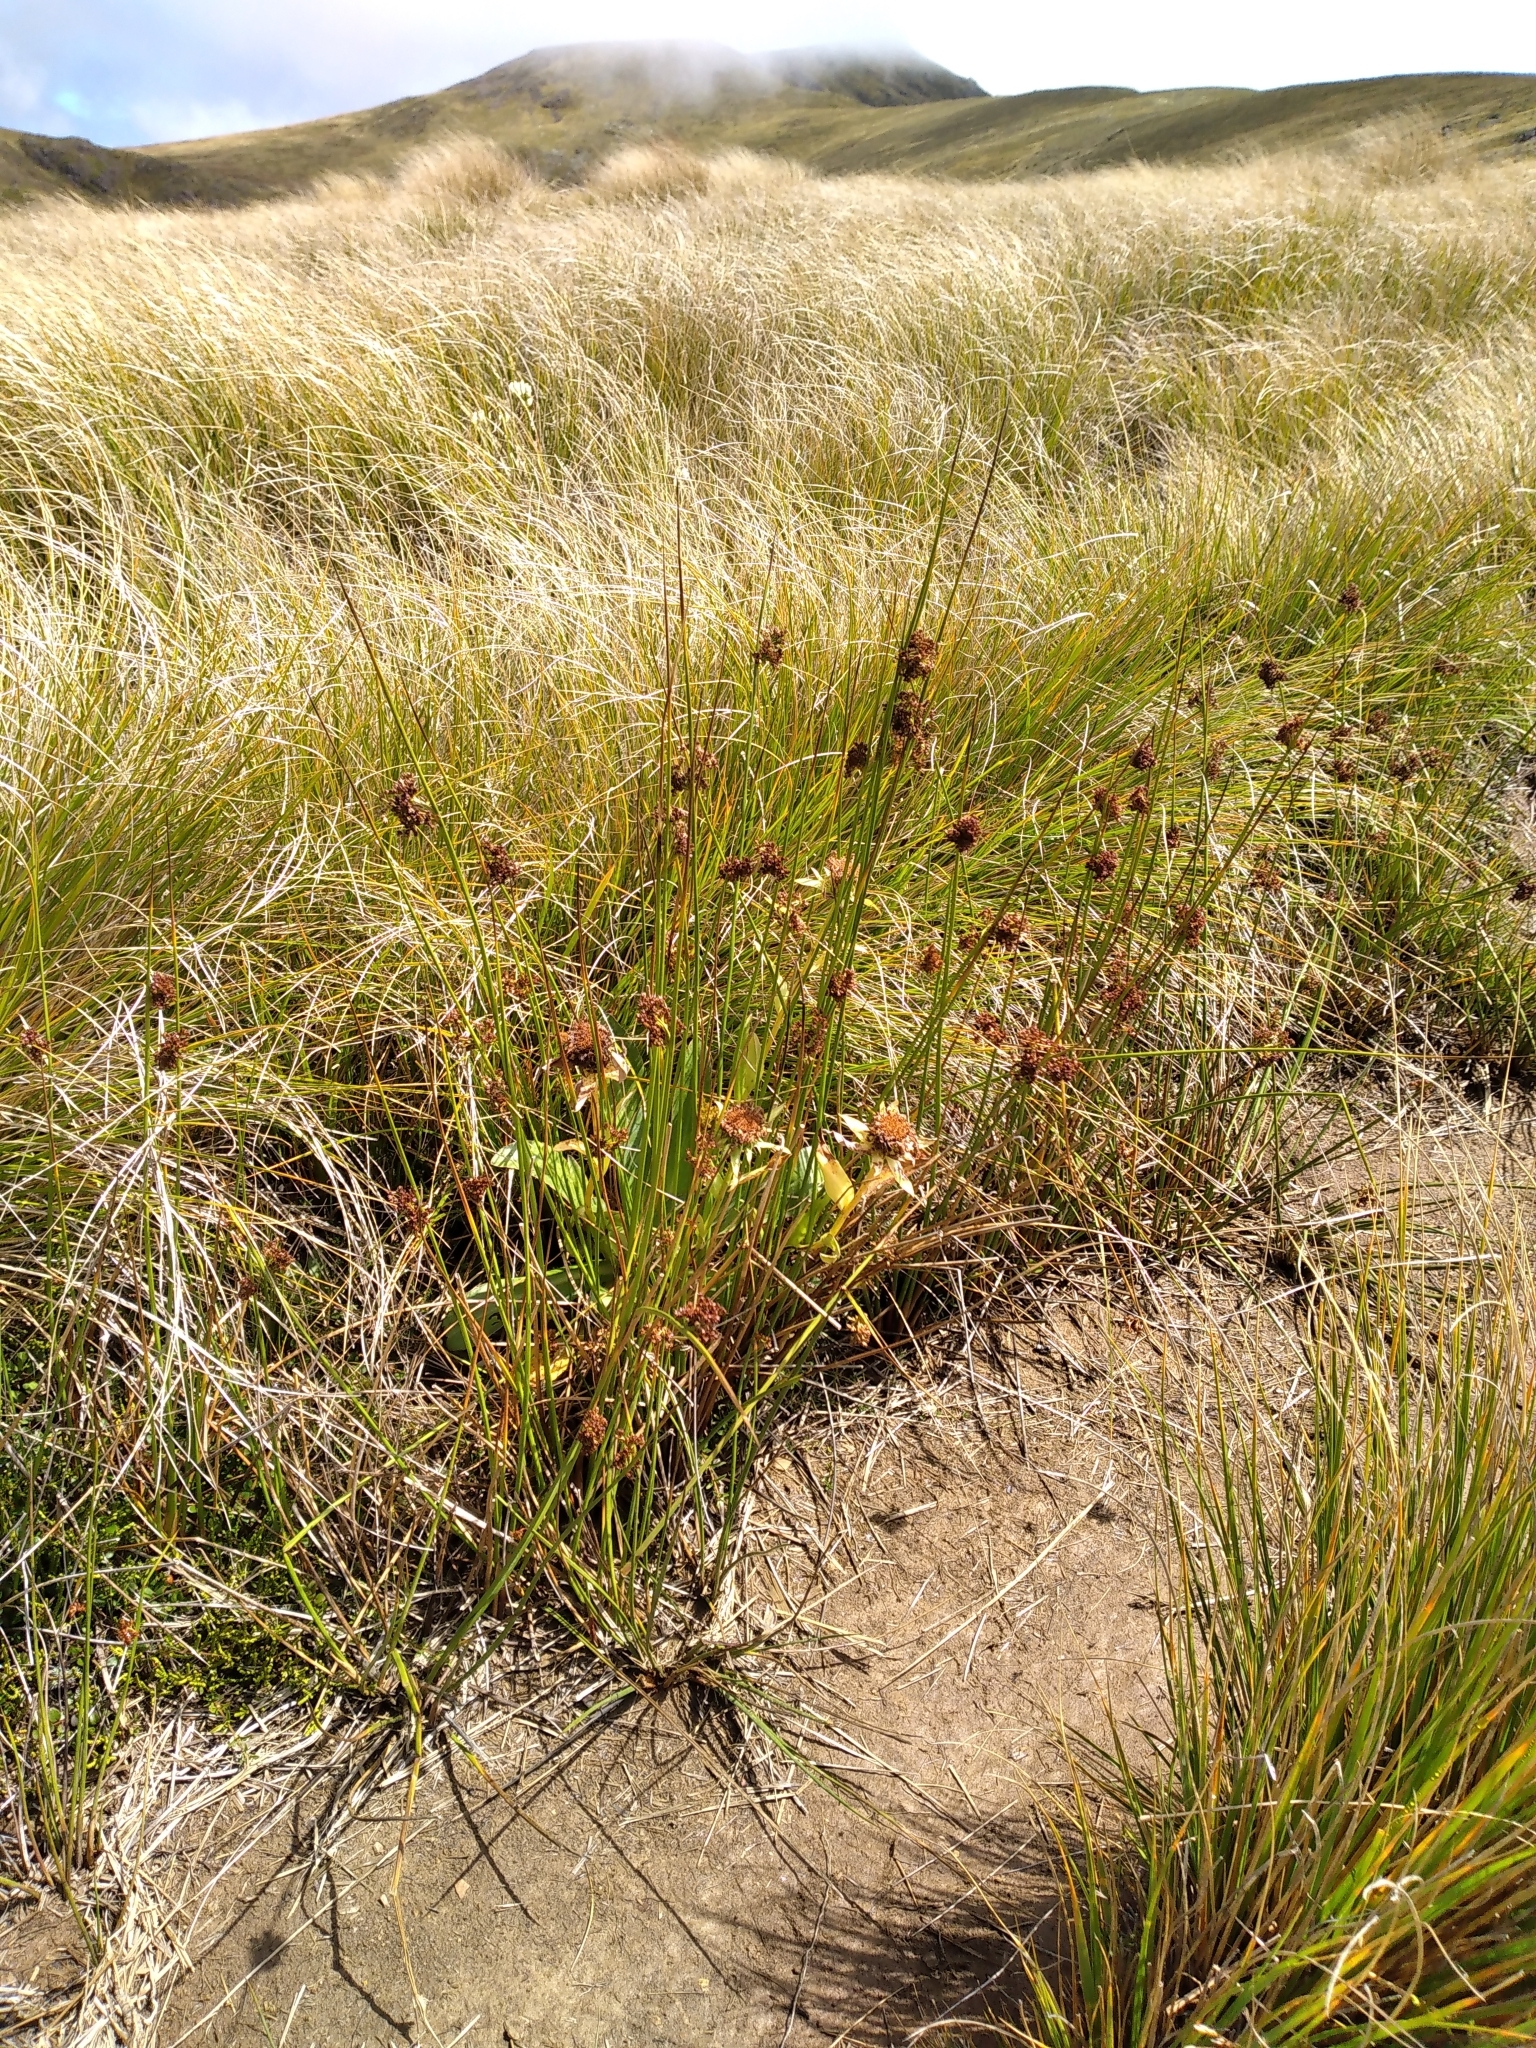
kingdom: Plantae
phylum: Tracheophyta
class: Liliopsida
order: Poales
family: Juncaceae
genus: Juncus
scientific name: Juncus effusus
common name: Soft rush
